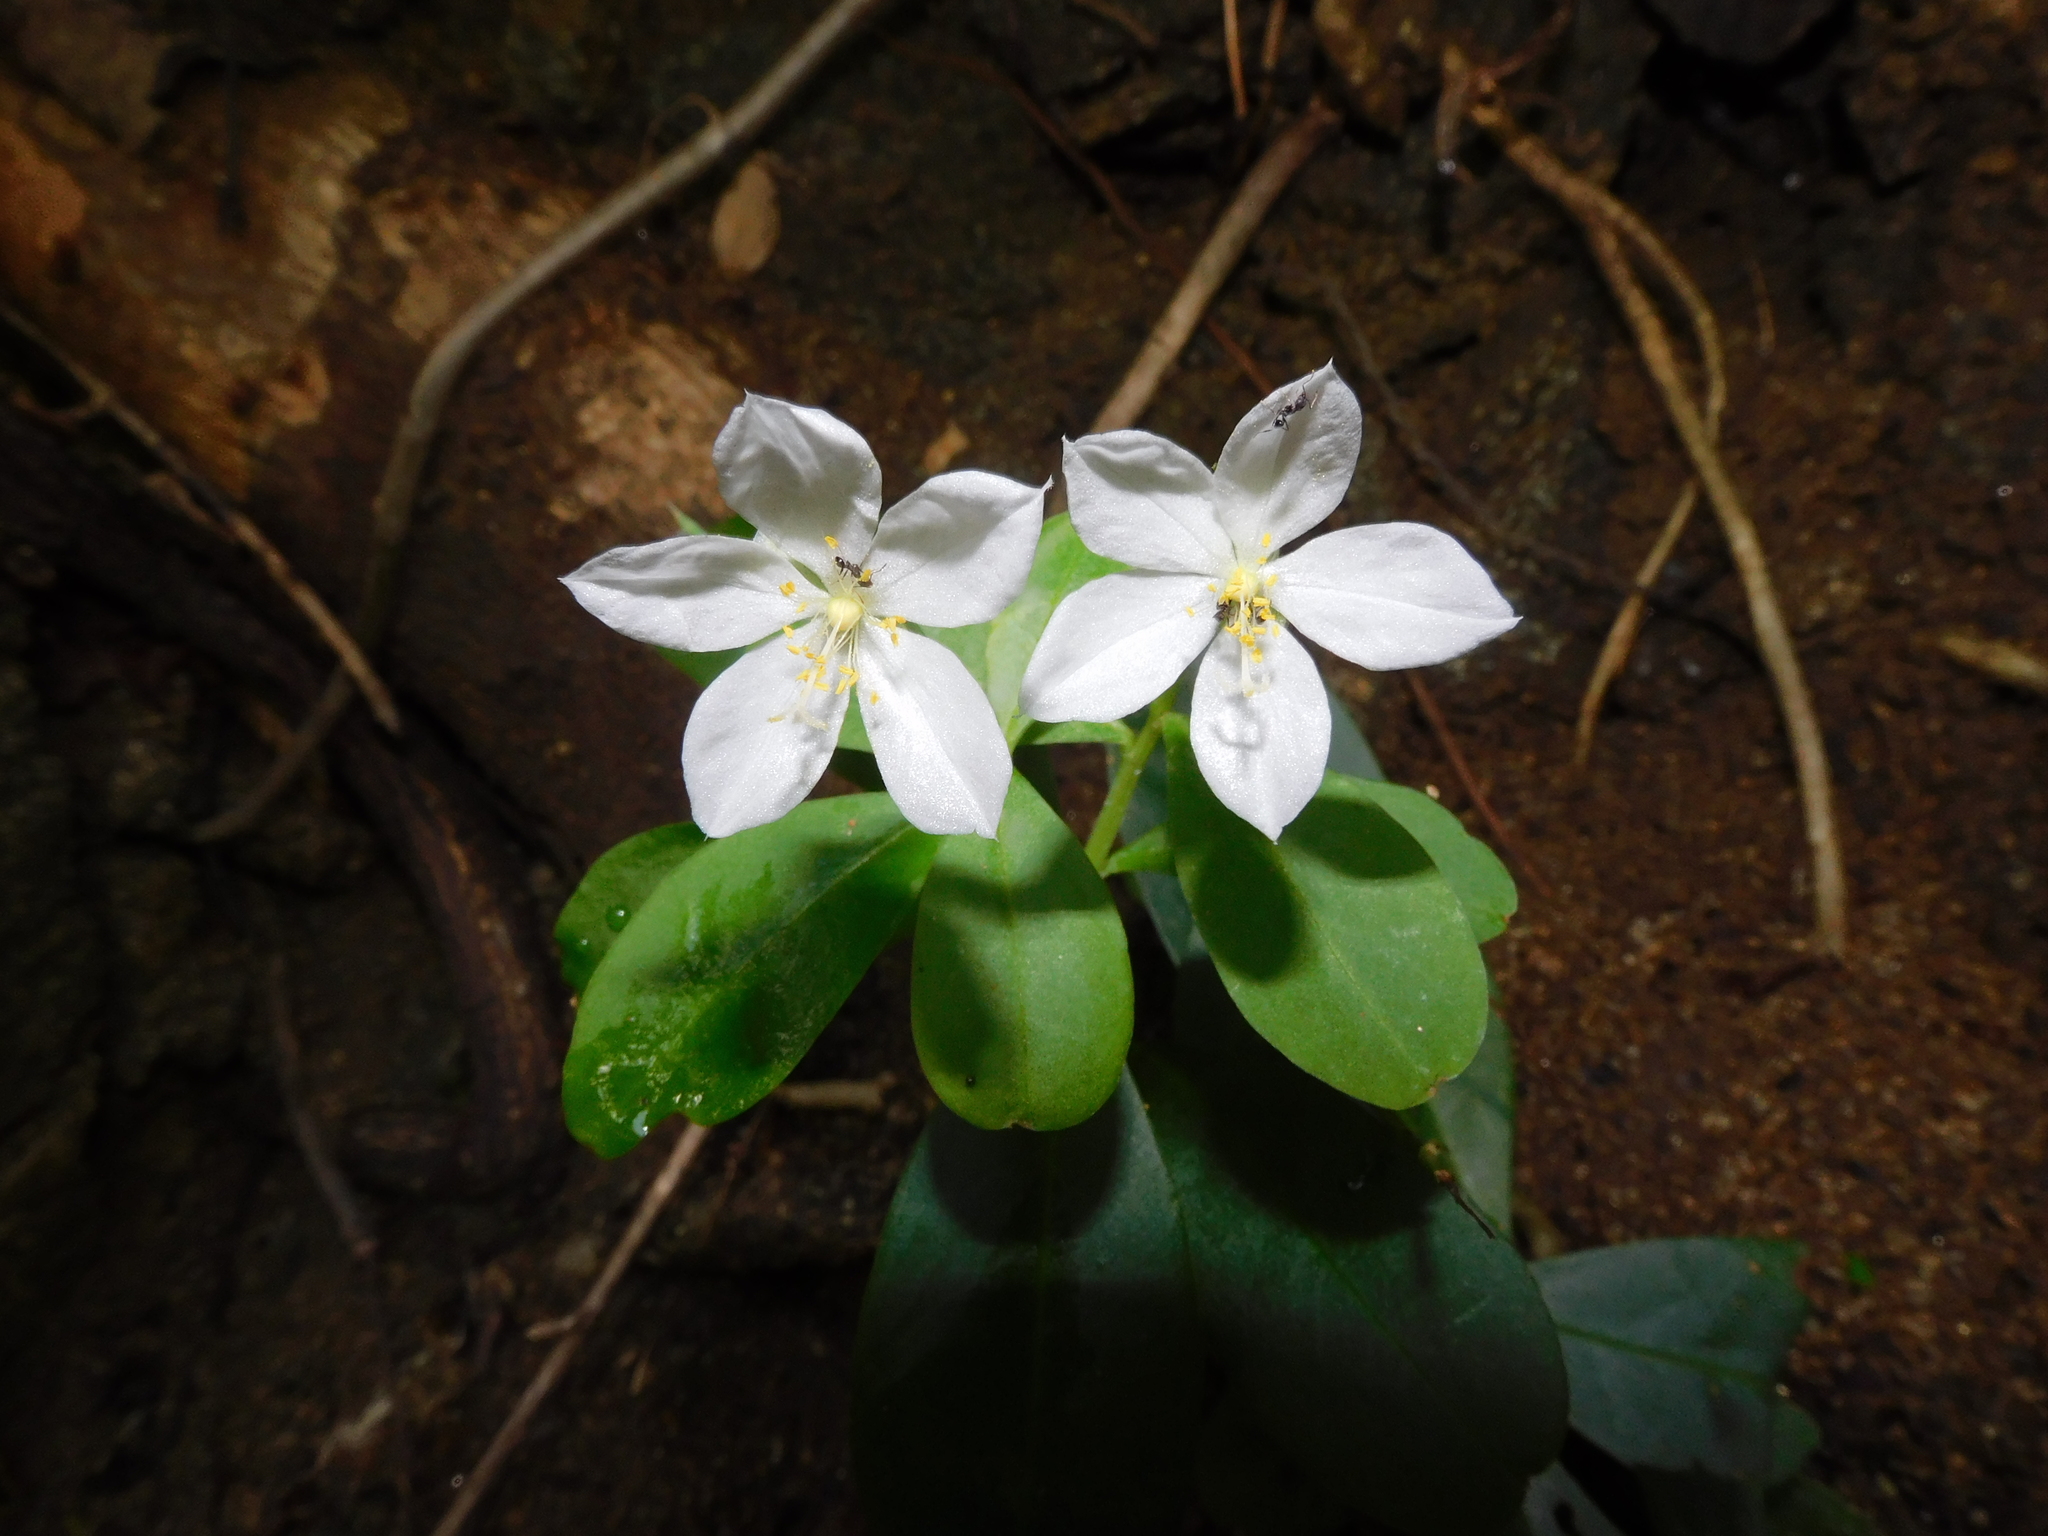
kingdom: Plantae
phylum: Tracheophyta
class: Magnoliopsida
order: Caryophyllales
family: Talinaceae
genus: Talinum
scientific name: Talinum fruticosum
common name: Verdolaga-francesa
